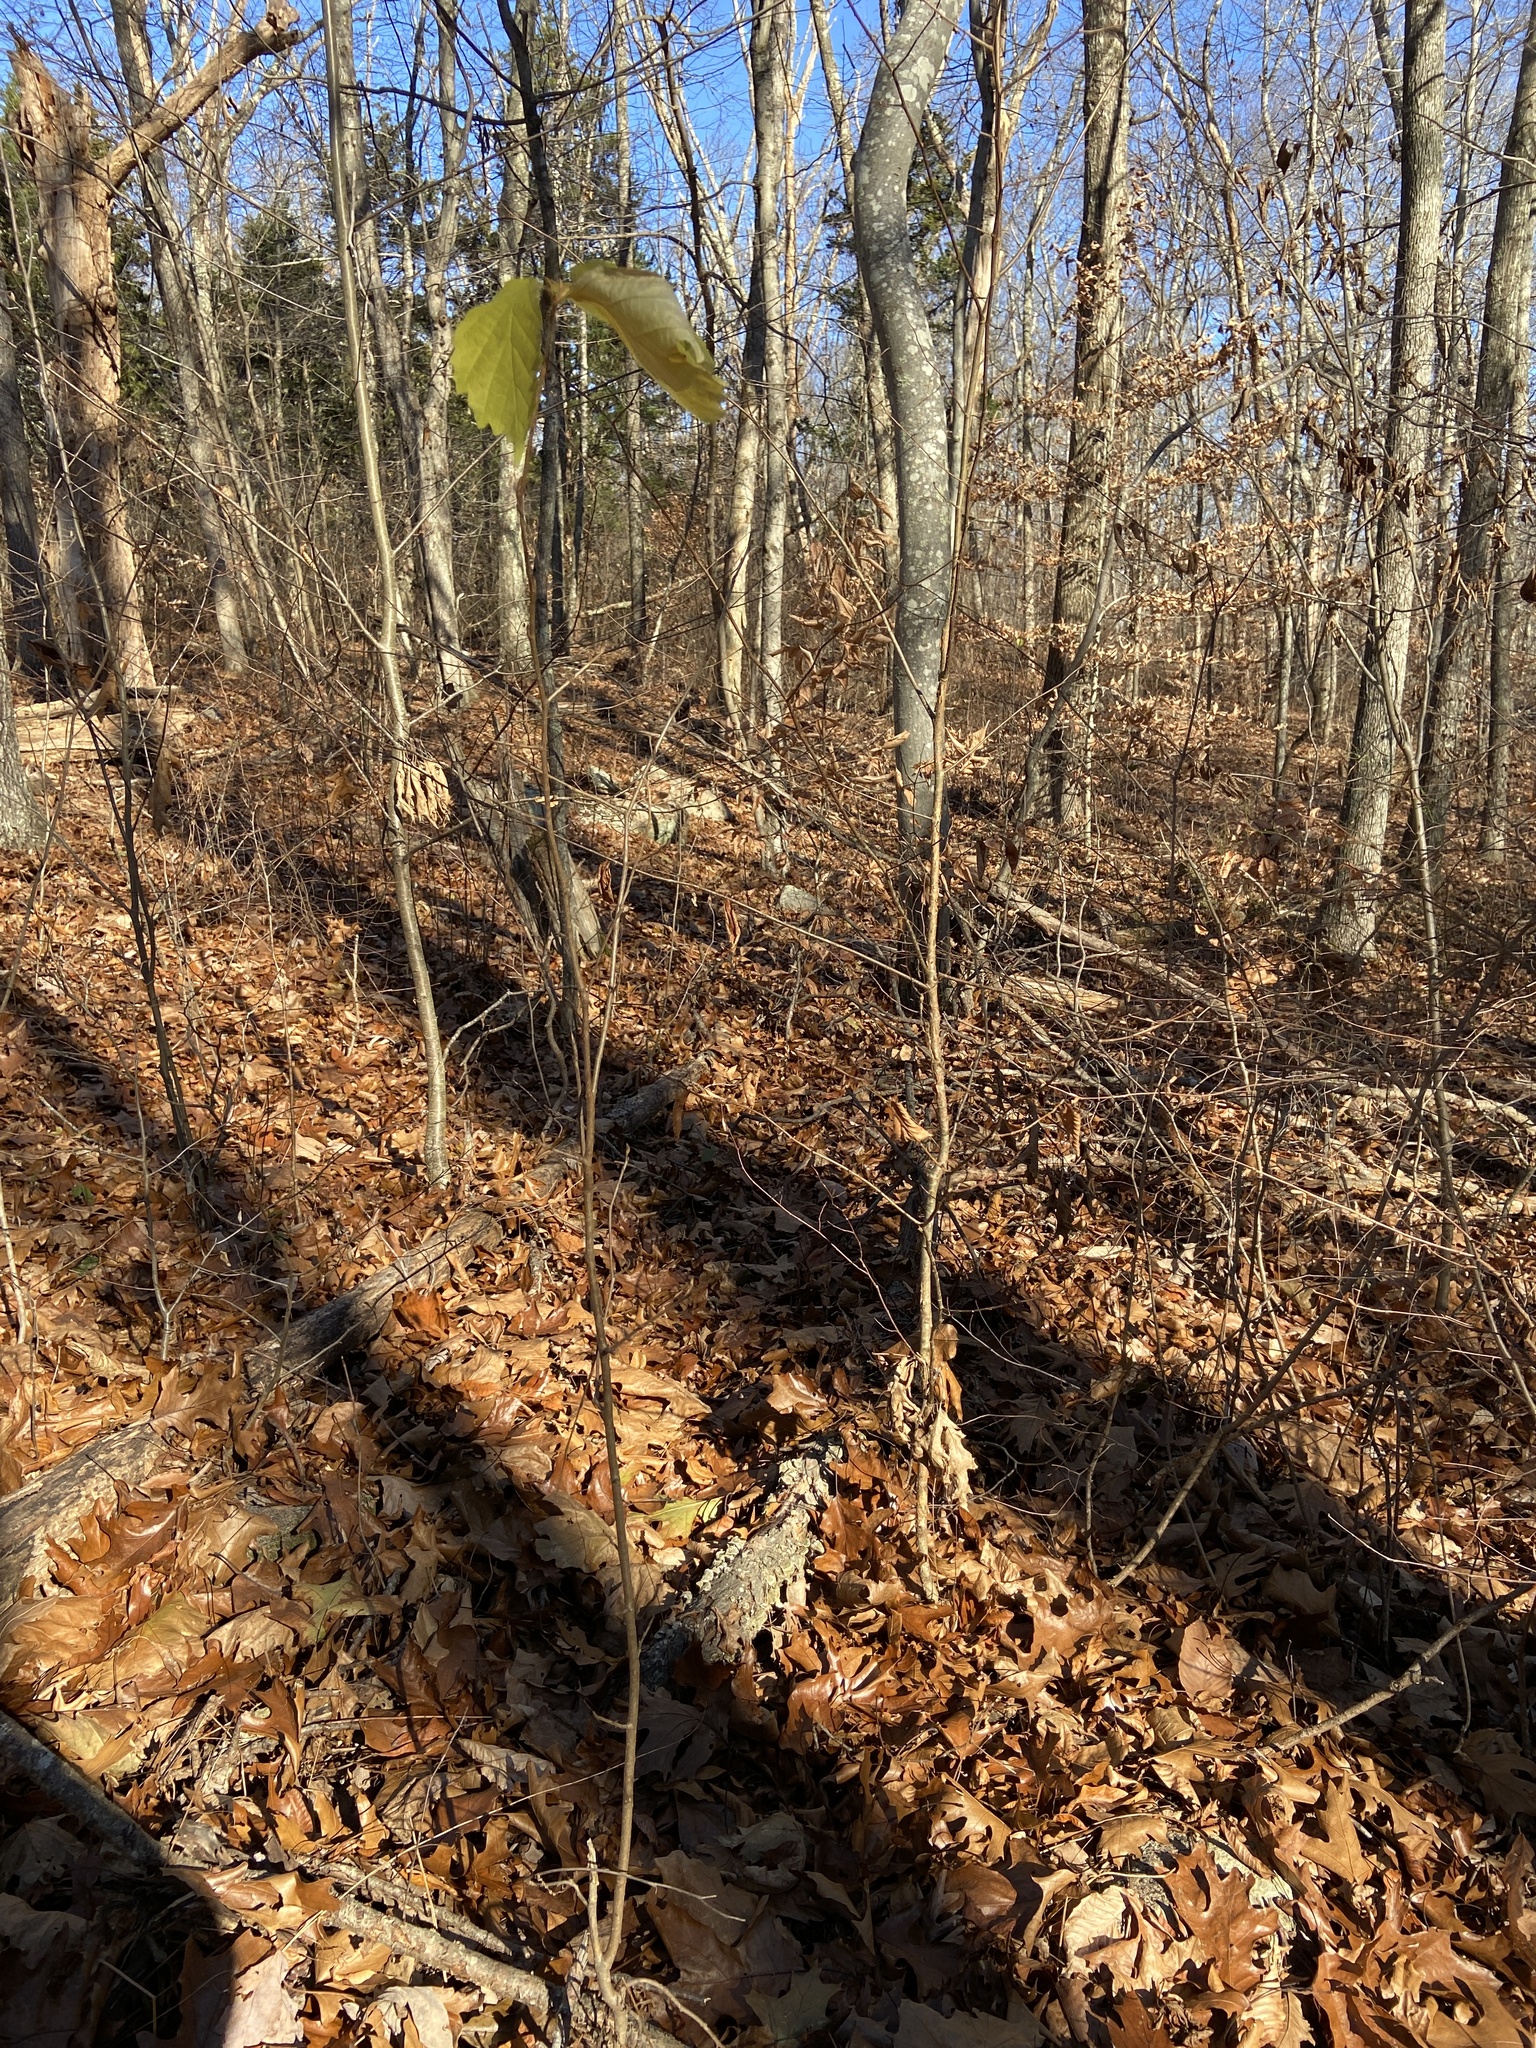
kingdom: Plantae
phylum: Tracheophyta
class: Magnoliopsida
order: Saxifragales
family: Hamamelidaceae
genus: Hamamelis
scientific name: Hamamelis virginiana
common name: Witch-hazel
